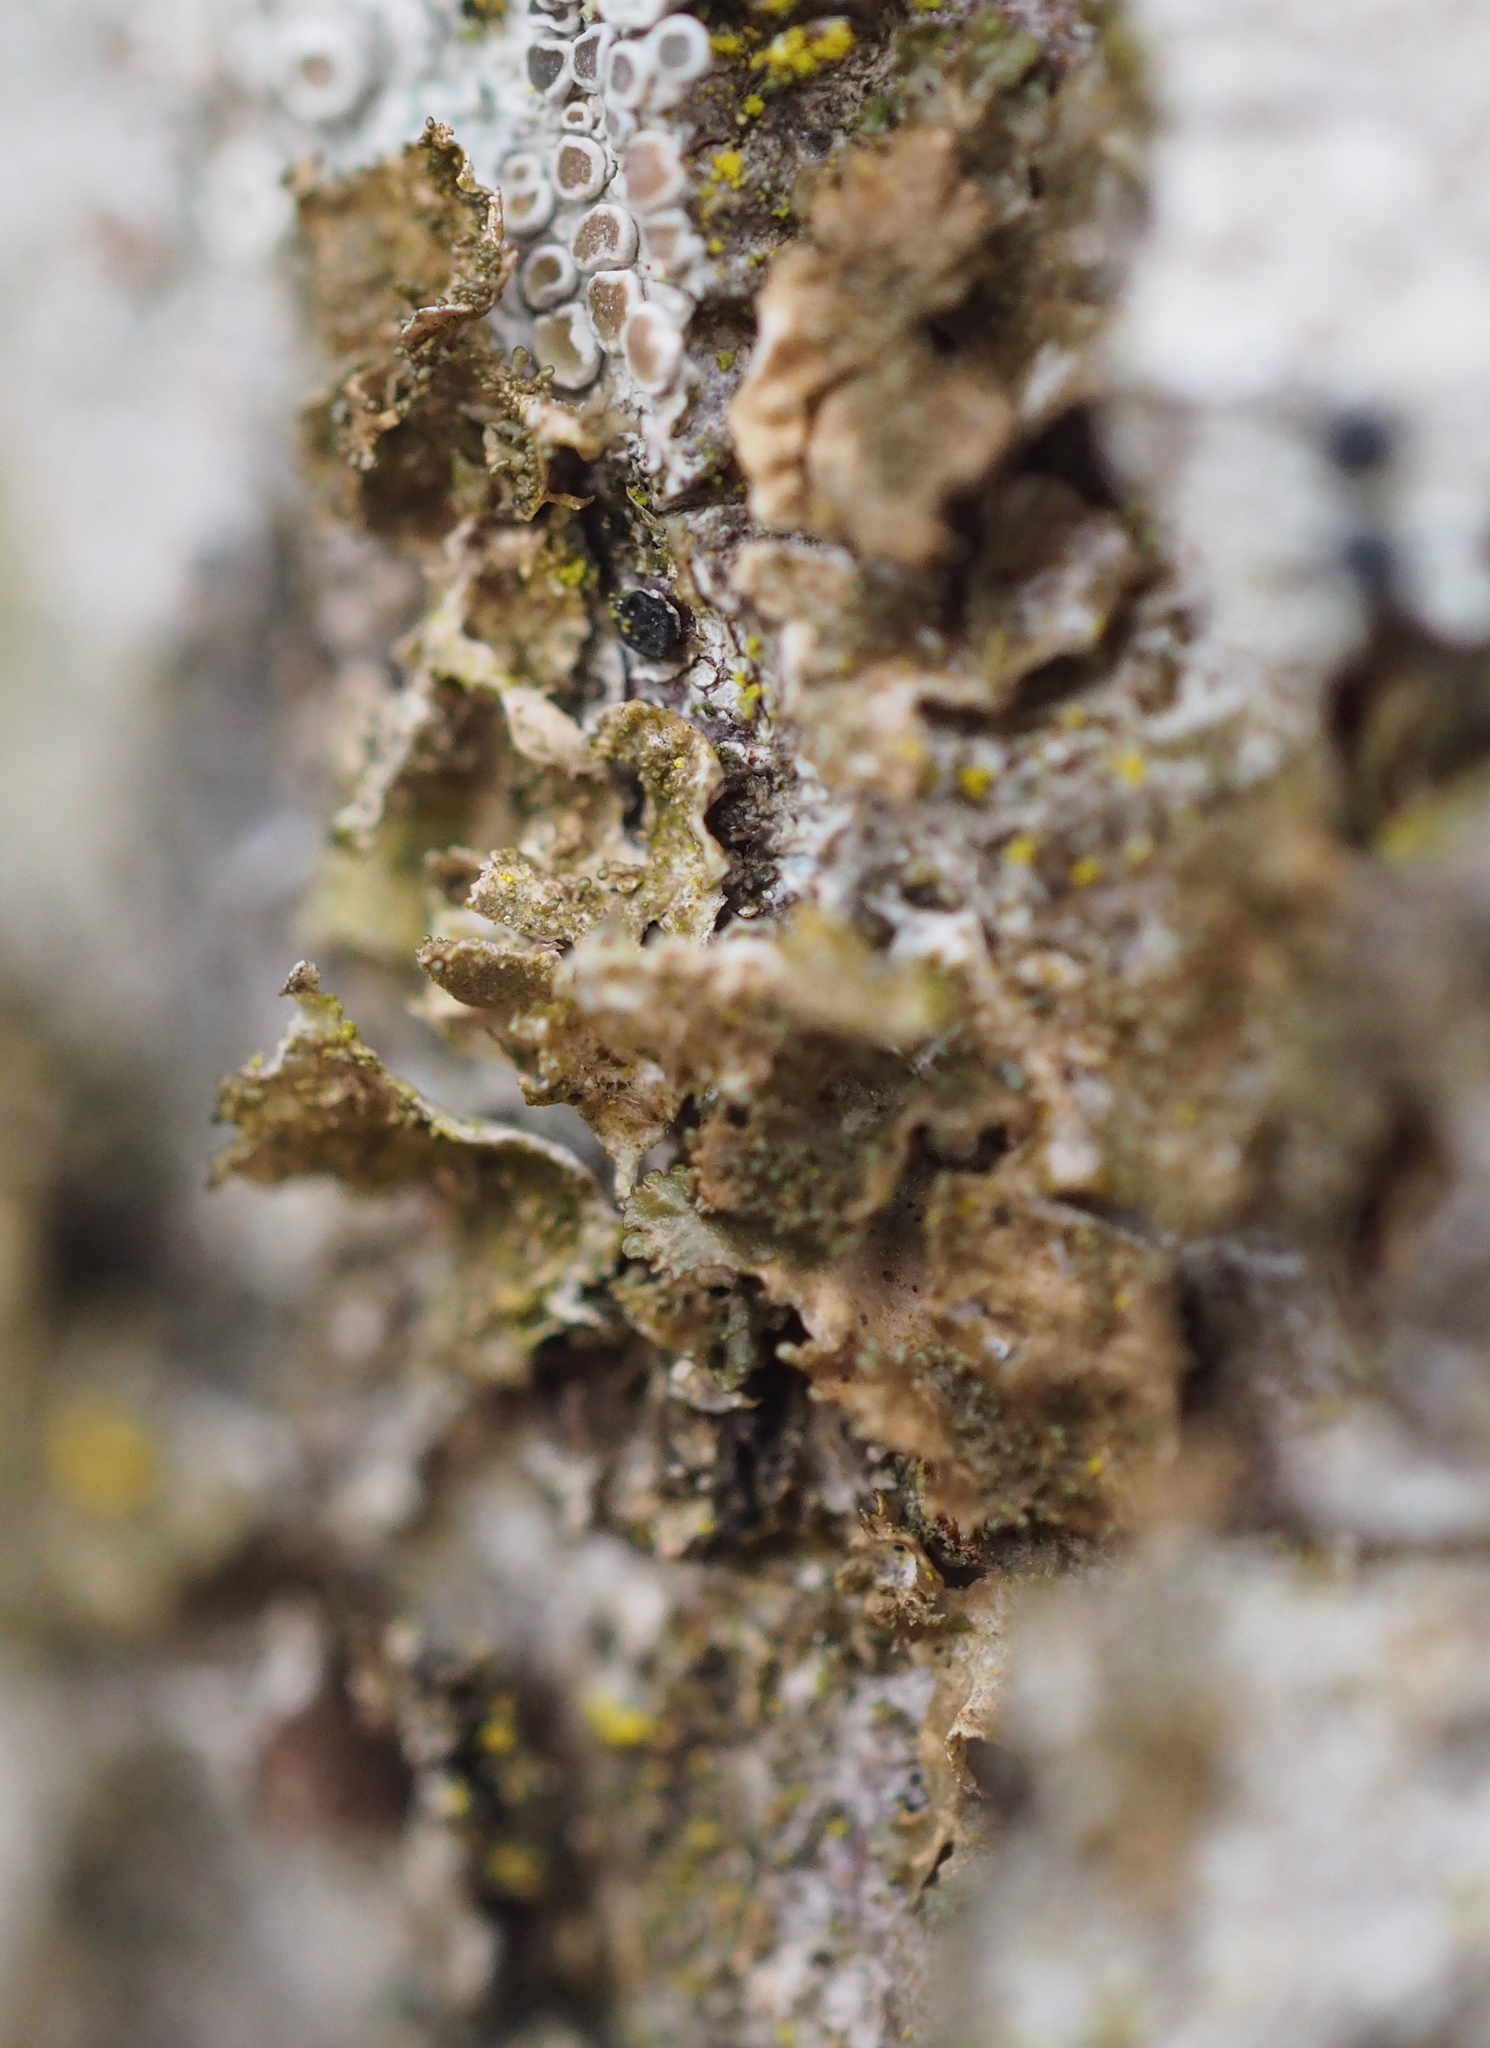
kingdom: Fungi
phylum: Ascomycota
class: Lecanoromycetes
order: Lecanorales
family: Parmeliaceae
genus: Melanohalea
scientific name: Melanohalea exasperatula
